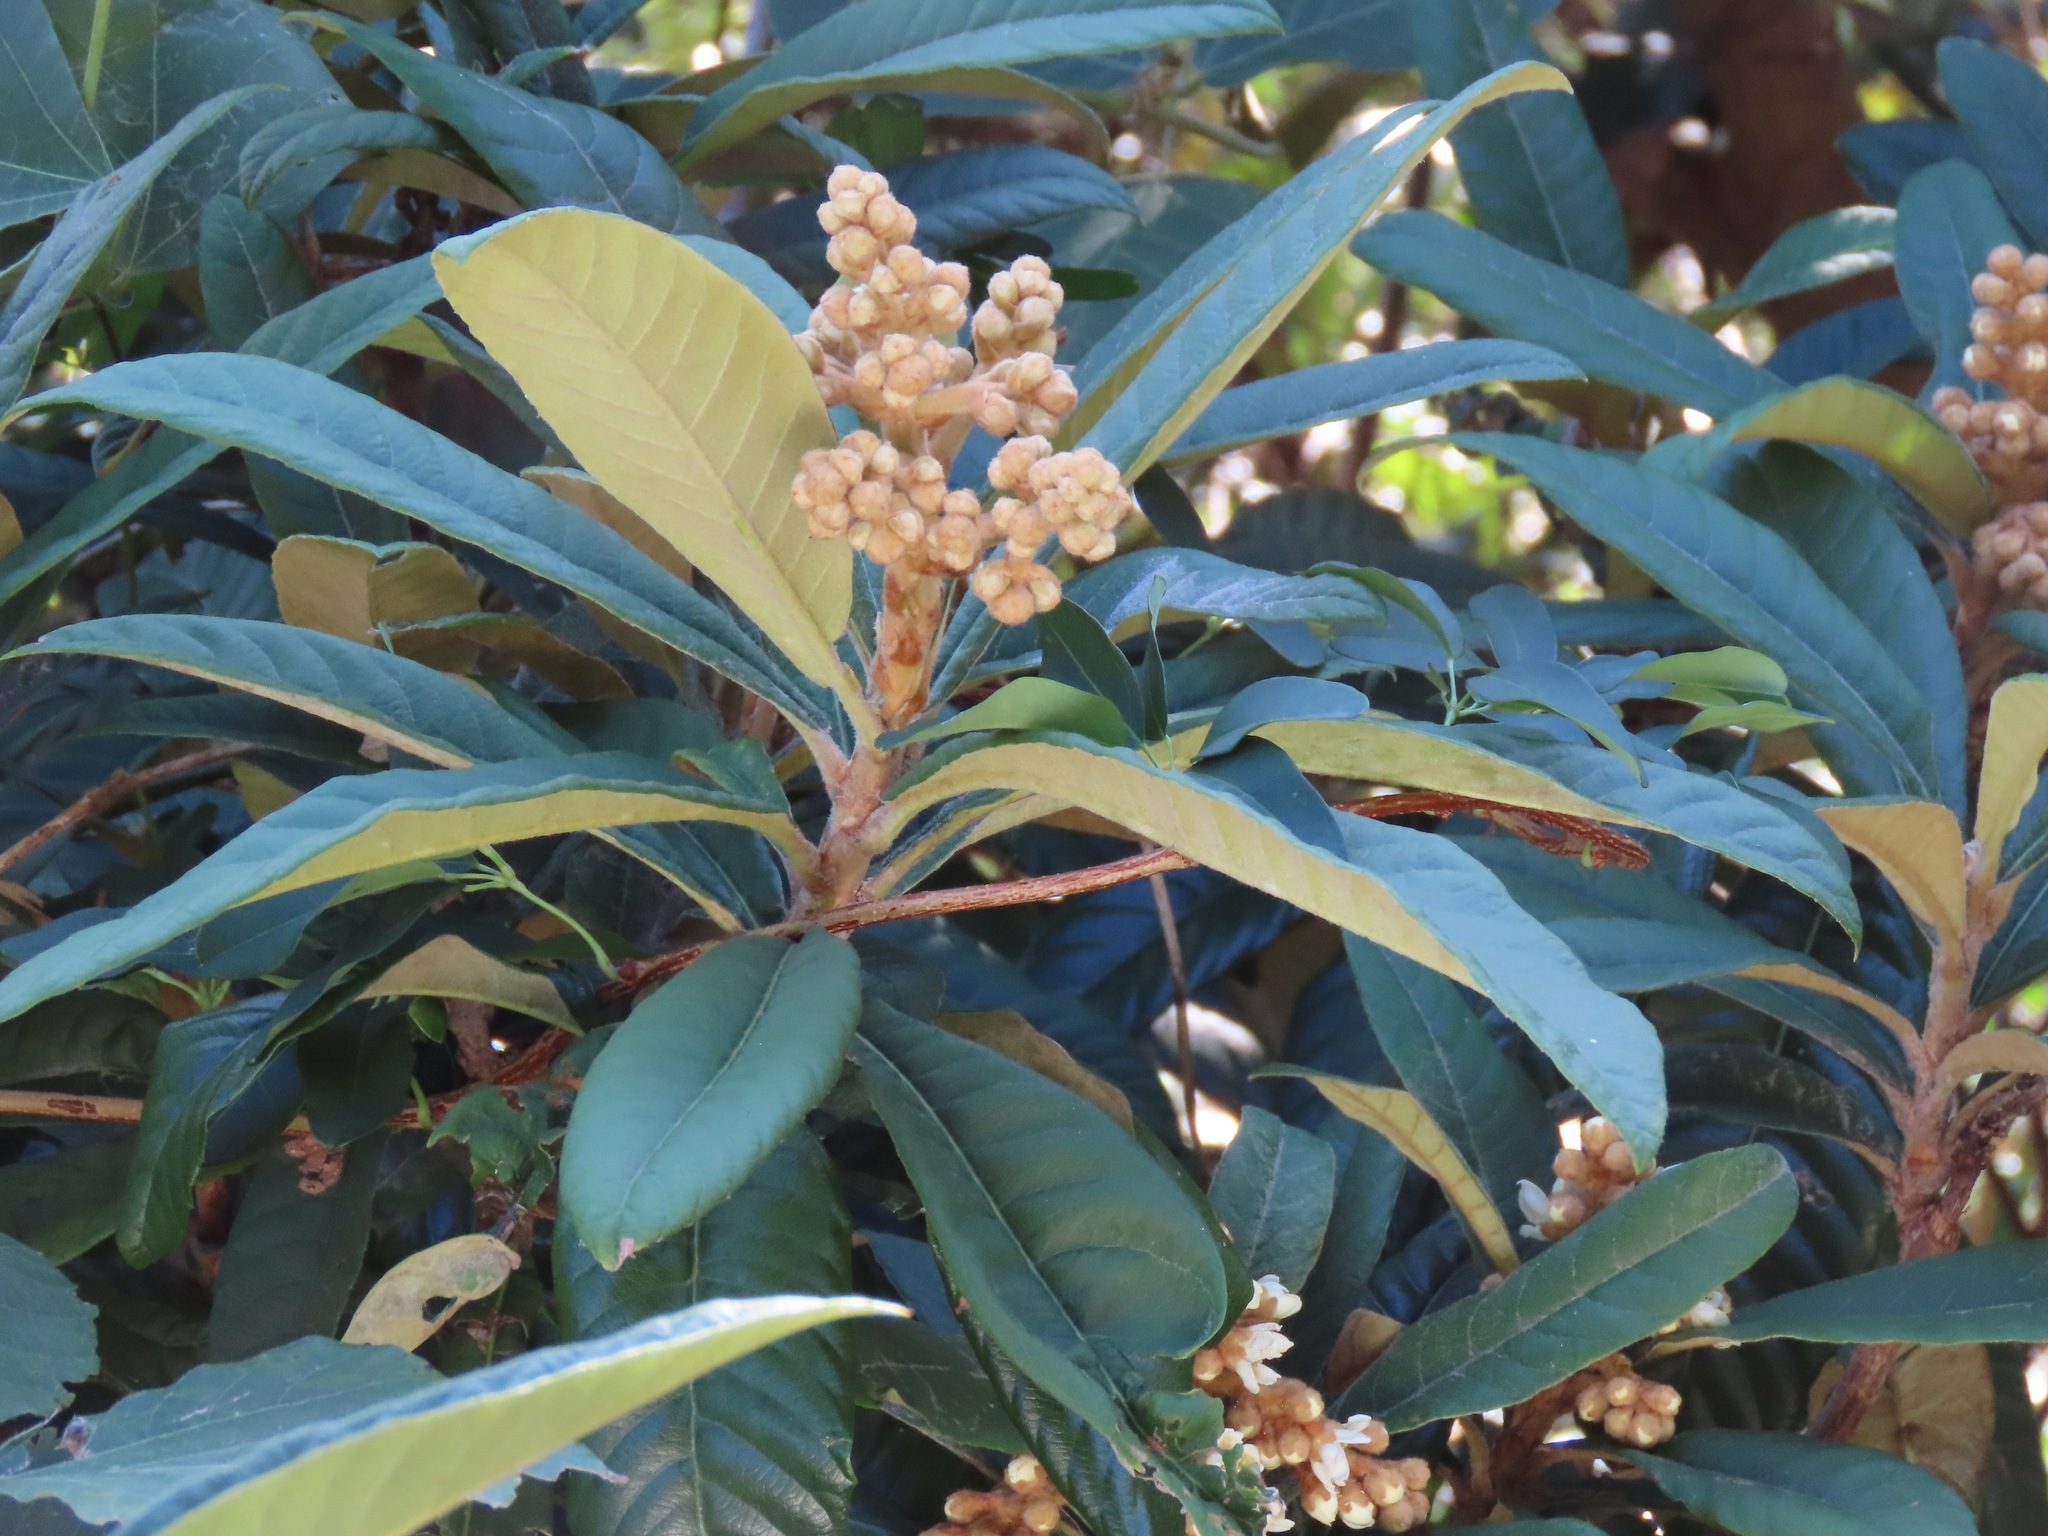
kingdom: Plantae
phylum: Tracheophyta
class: Magnoliopsida
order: Rosales
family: Rosaceae
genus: Rhaphiolepis
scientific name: Rhaphiolepis bibas
